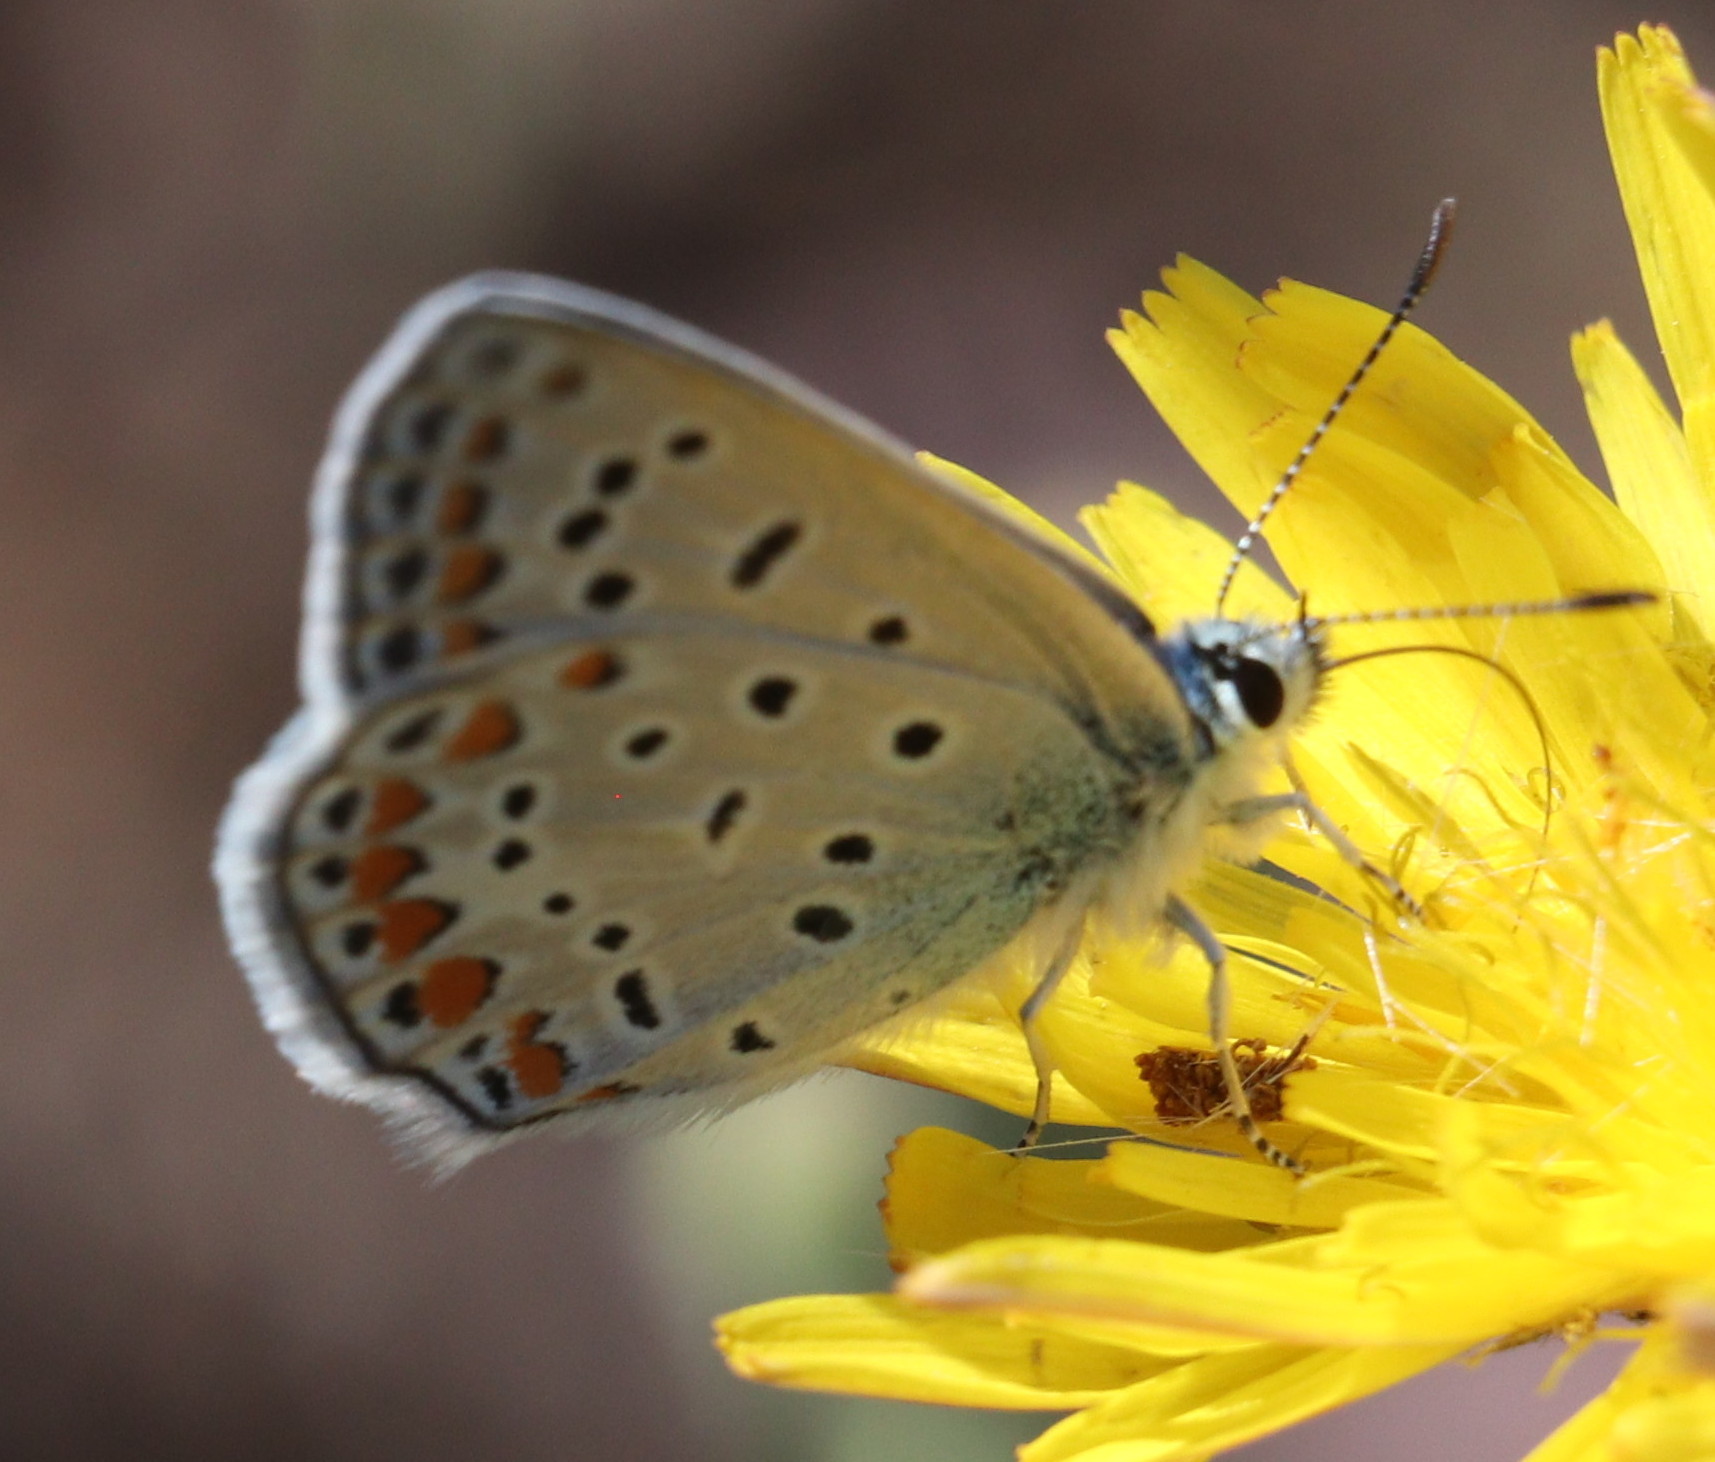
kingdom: Animalia
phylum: Arthropoda
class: Insecta
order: Lepidoptera
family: Lycaenidae
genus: Polyommatus
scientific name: Polyommatus icarus
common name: Common blue
